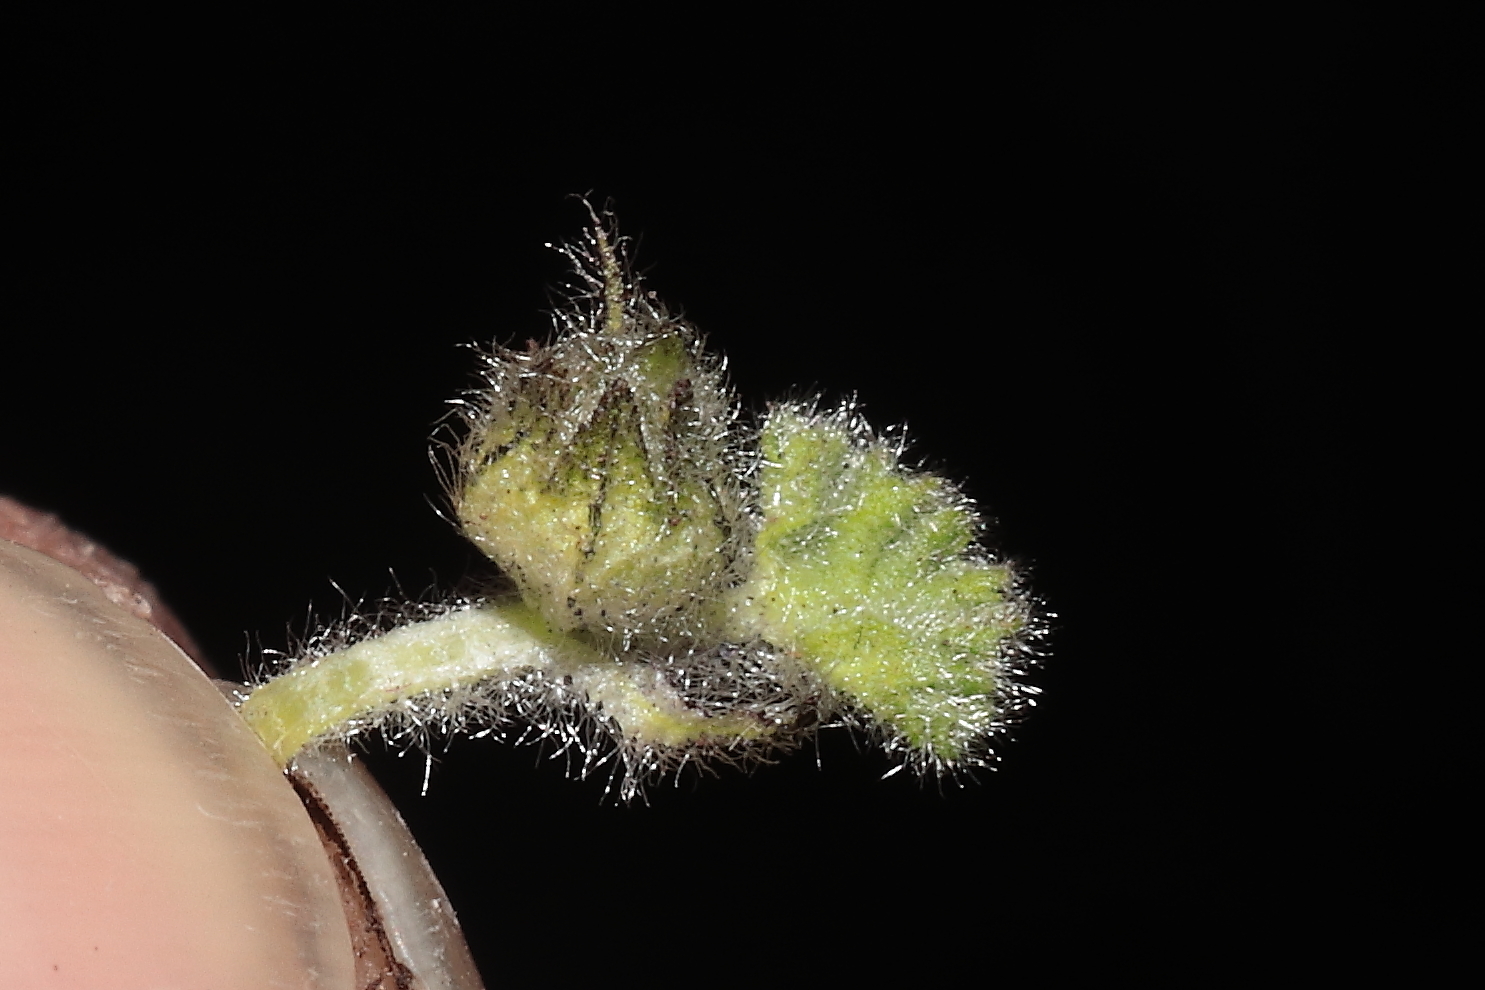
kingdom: Plantae
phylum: Tracheophyta
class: Magnoliopsida
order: Malvales
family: Malvaceae
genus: Nototriche
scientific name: Nototriche pusilla
